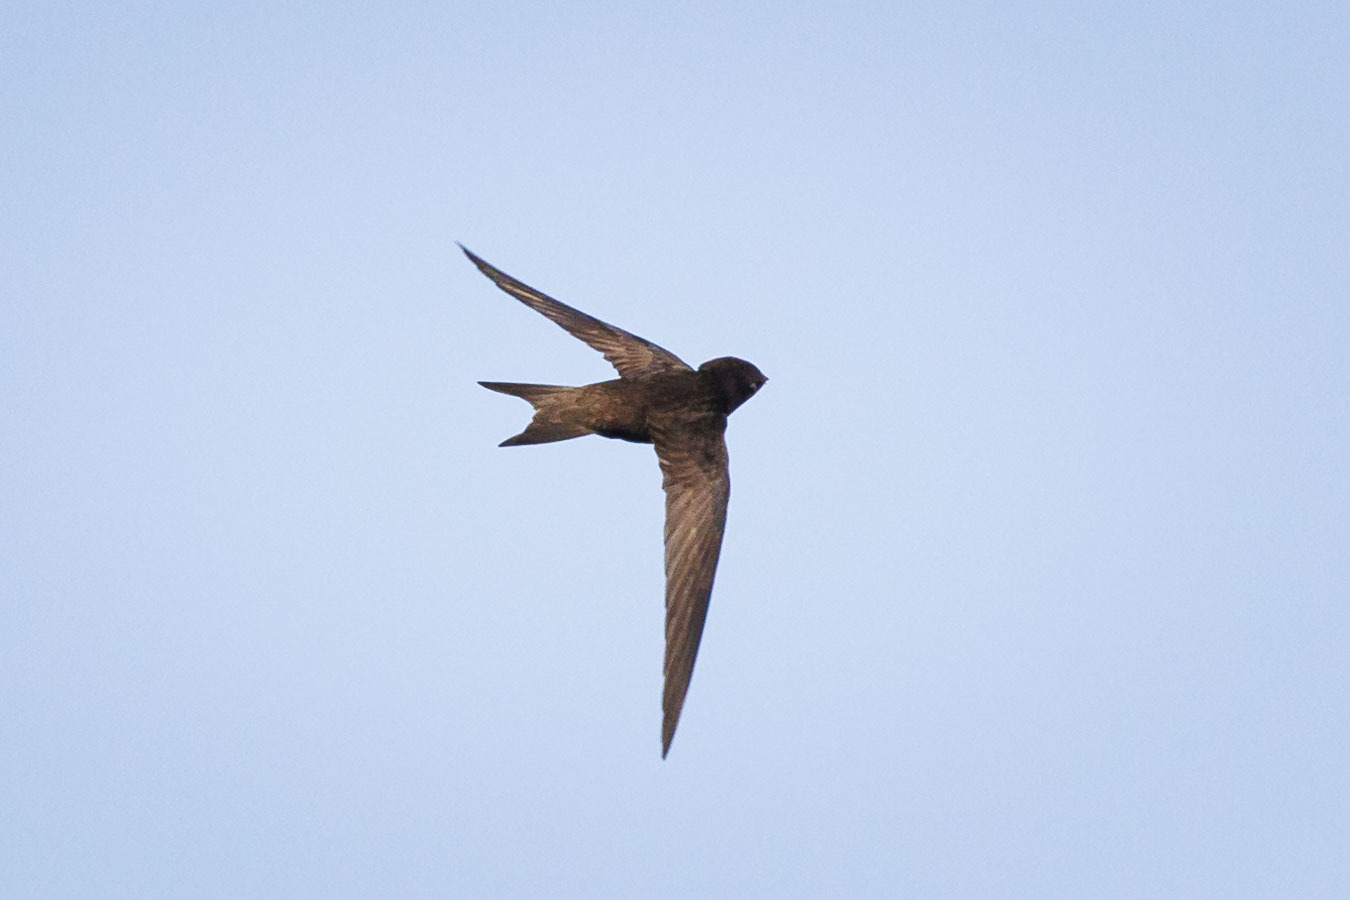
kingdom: Animalia
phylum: Chordata
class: Aves
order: Apodiformes
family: Apodidae
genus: Apus
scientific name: Apus apus
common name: Common swift
